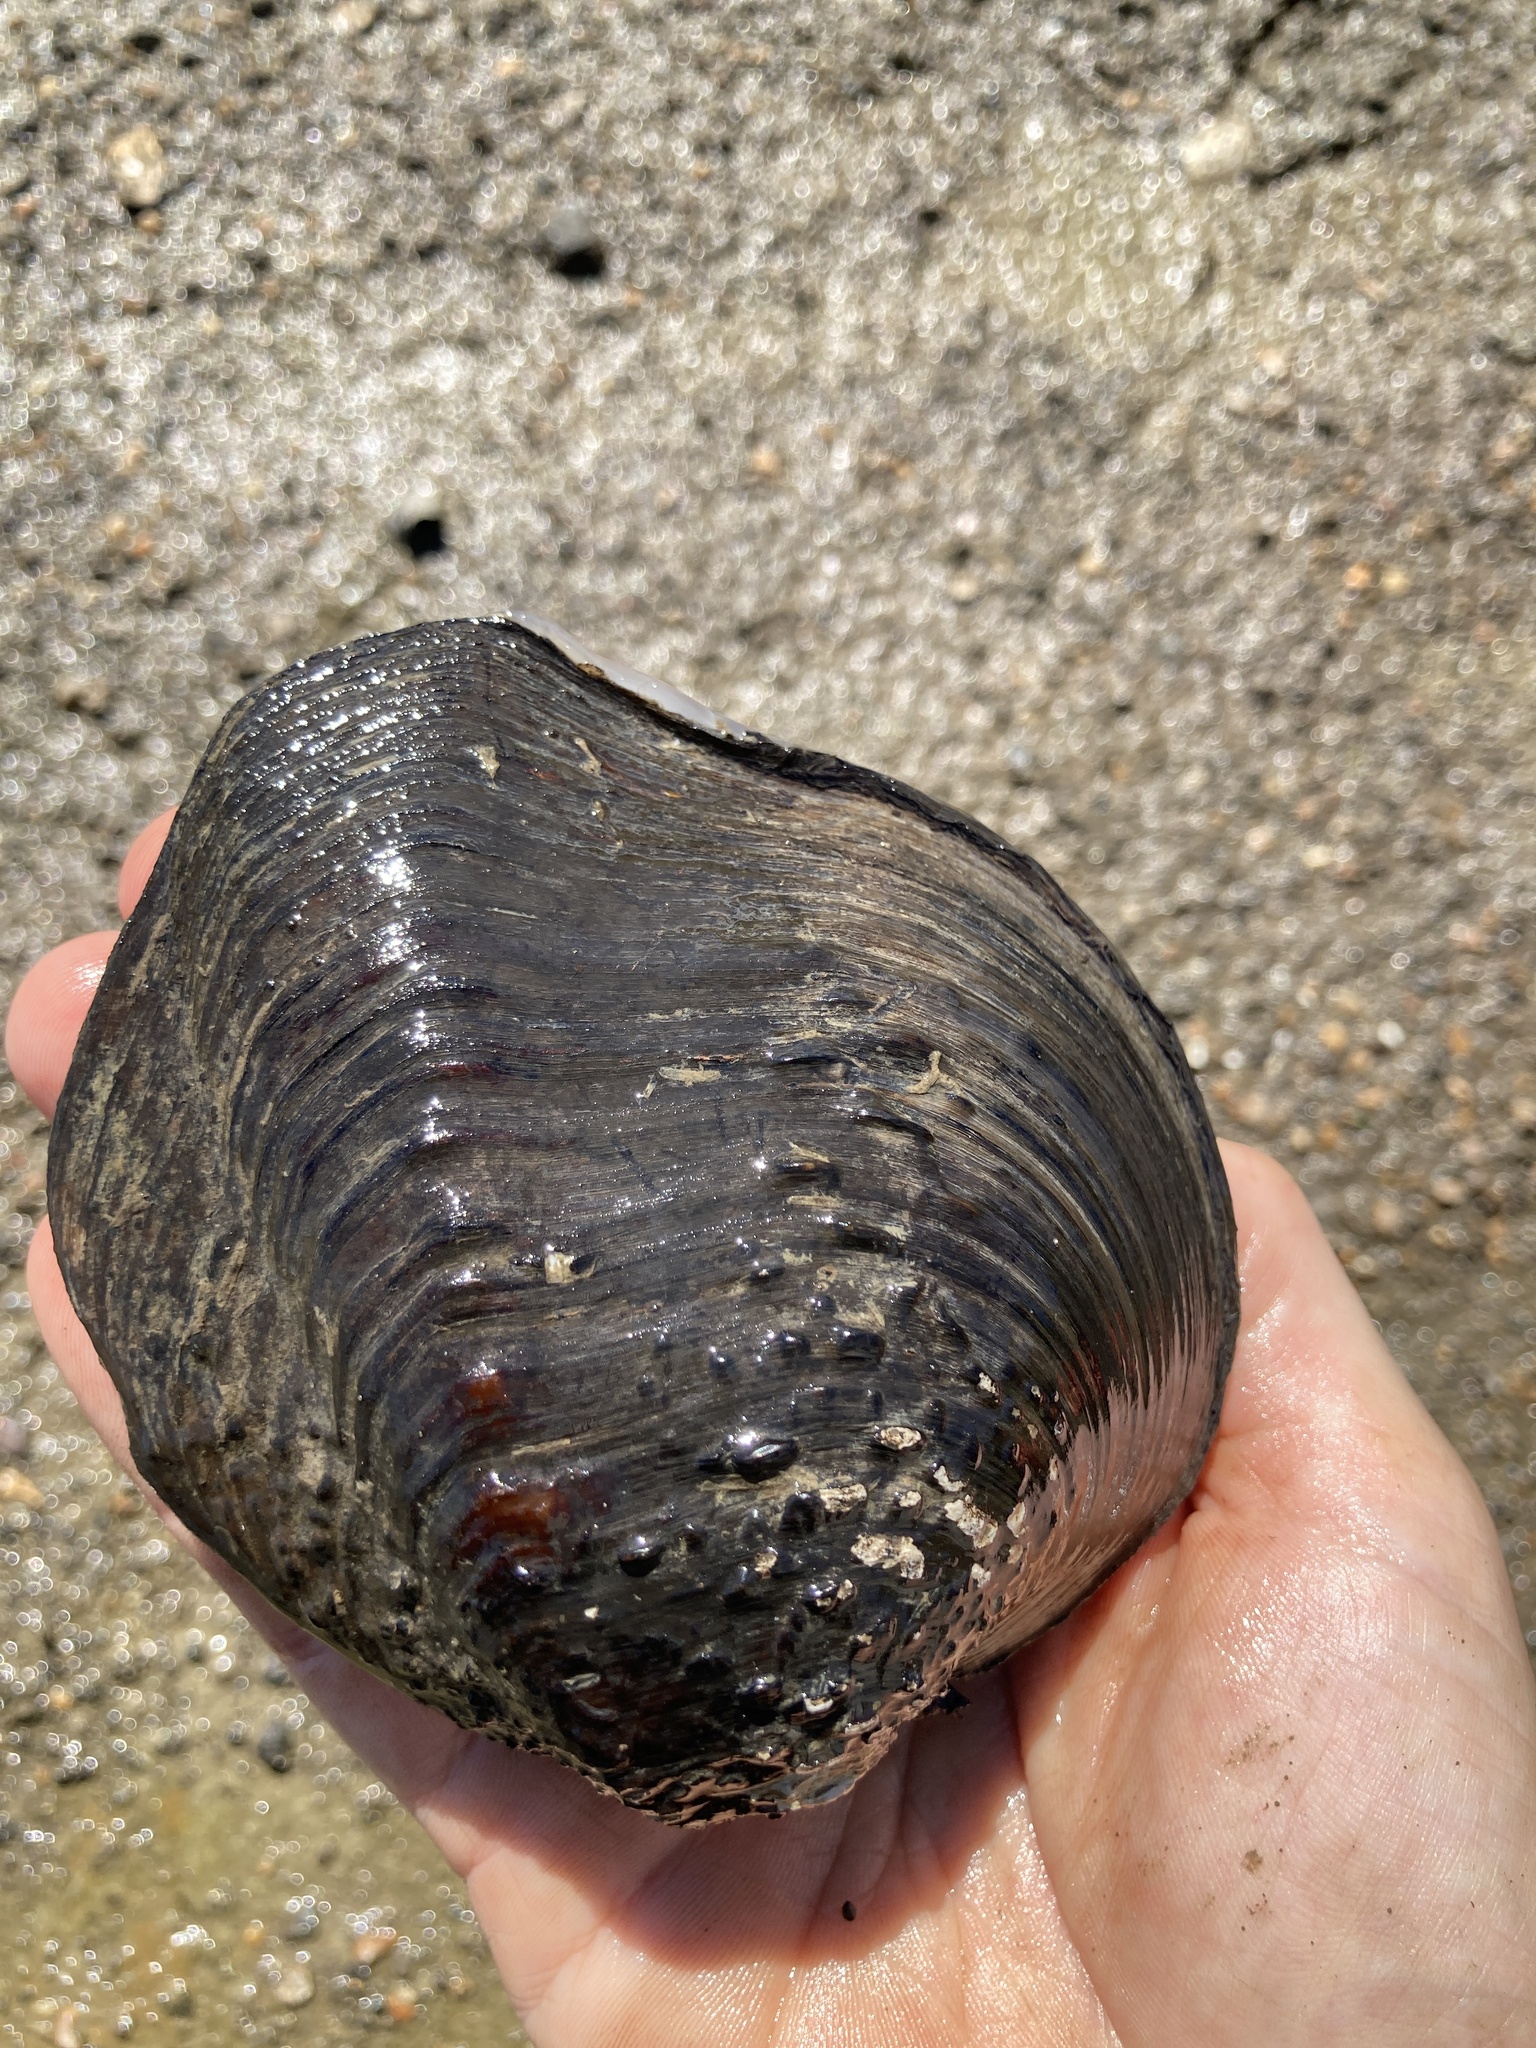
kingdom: Animalia
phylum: Mollusca
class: Bivalvia
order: Unionida
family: Unionidae
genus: Quadrula
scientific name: Quadrula quadrula
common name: Mapleleaf
